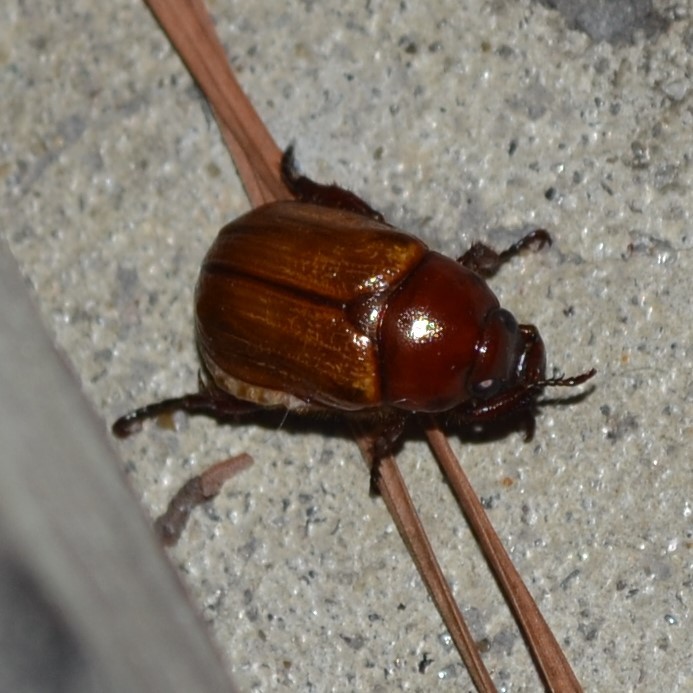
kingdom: Animalia
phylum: Arthropoda
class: Insecta
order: Coleoptera
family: Scarabaeidae
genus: Paranomala
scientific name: Paranomala flavipennis
